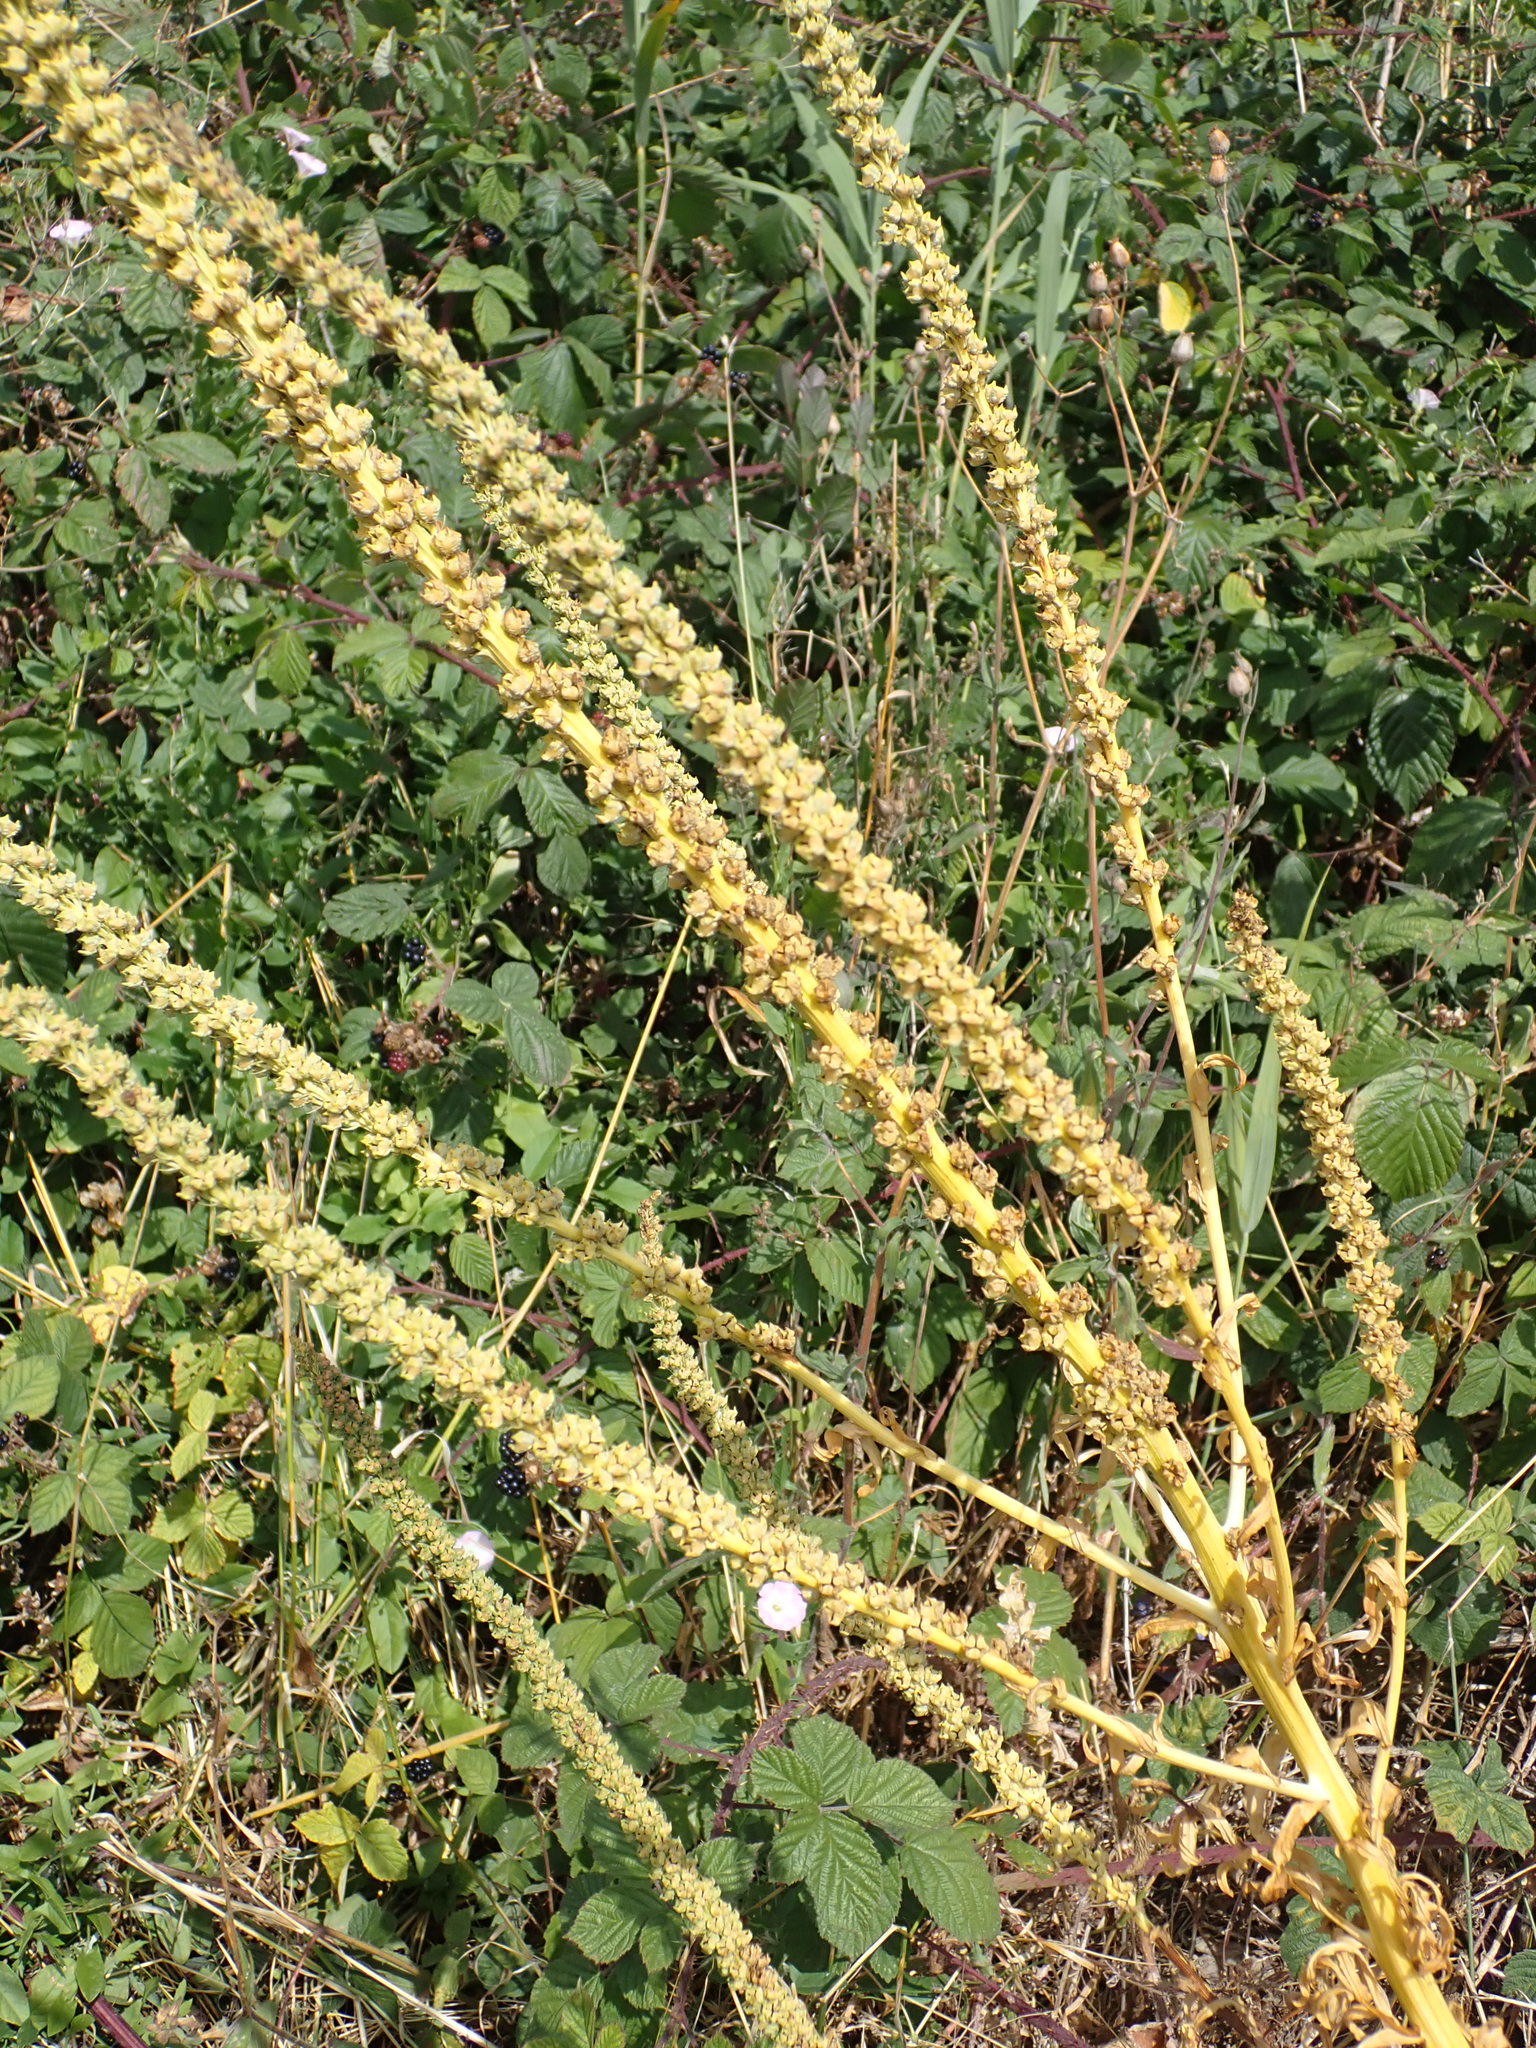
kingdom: Plantae
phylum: Tracheophyta
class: Magnoliopsida
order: Brassicales
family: Resedaceae
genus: Reseda
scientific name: Reseda luteola
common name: Weld
